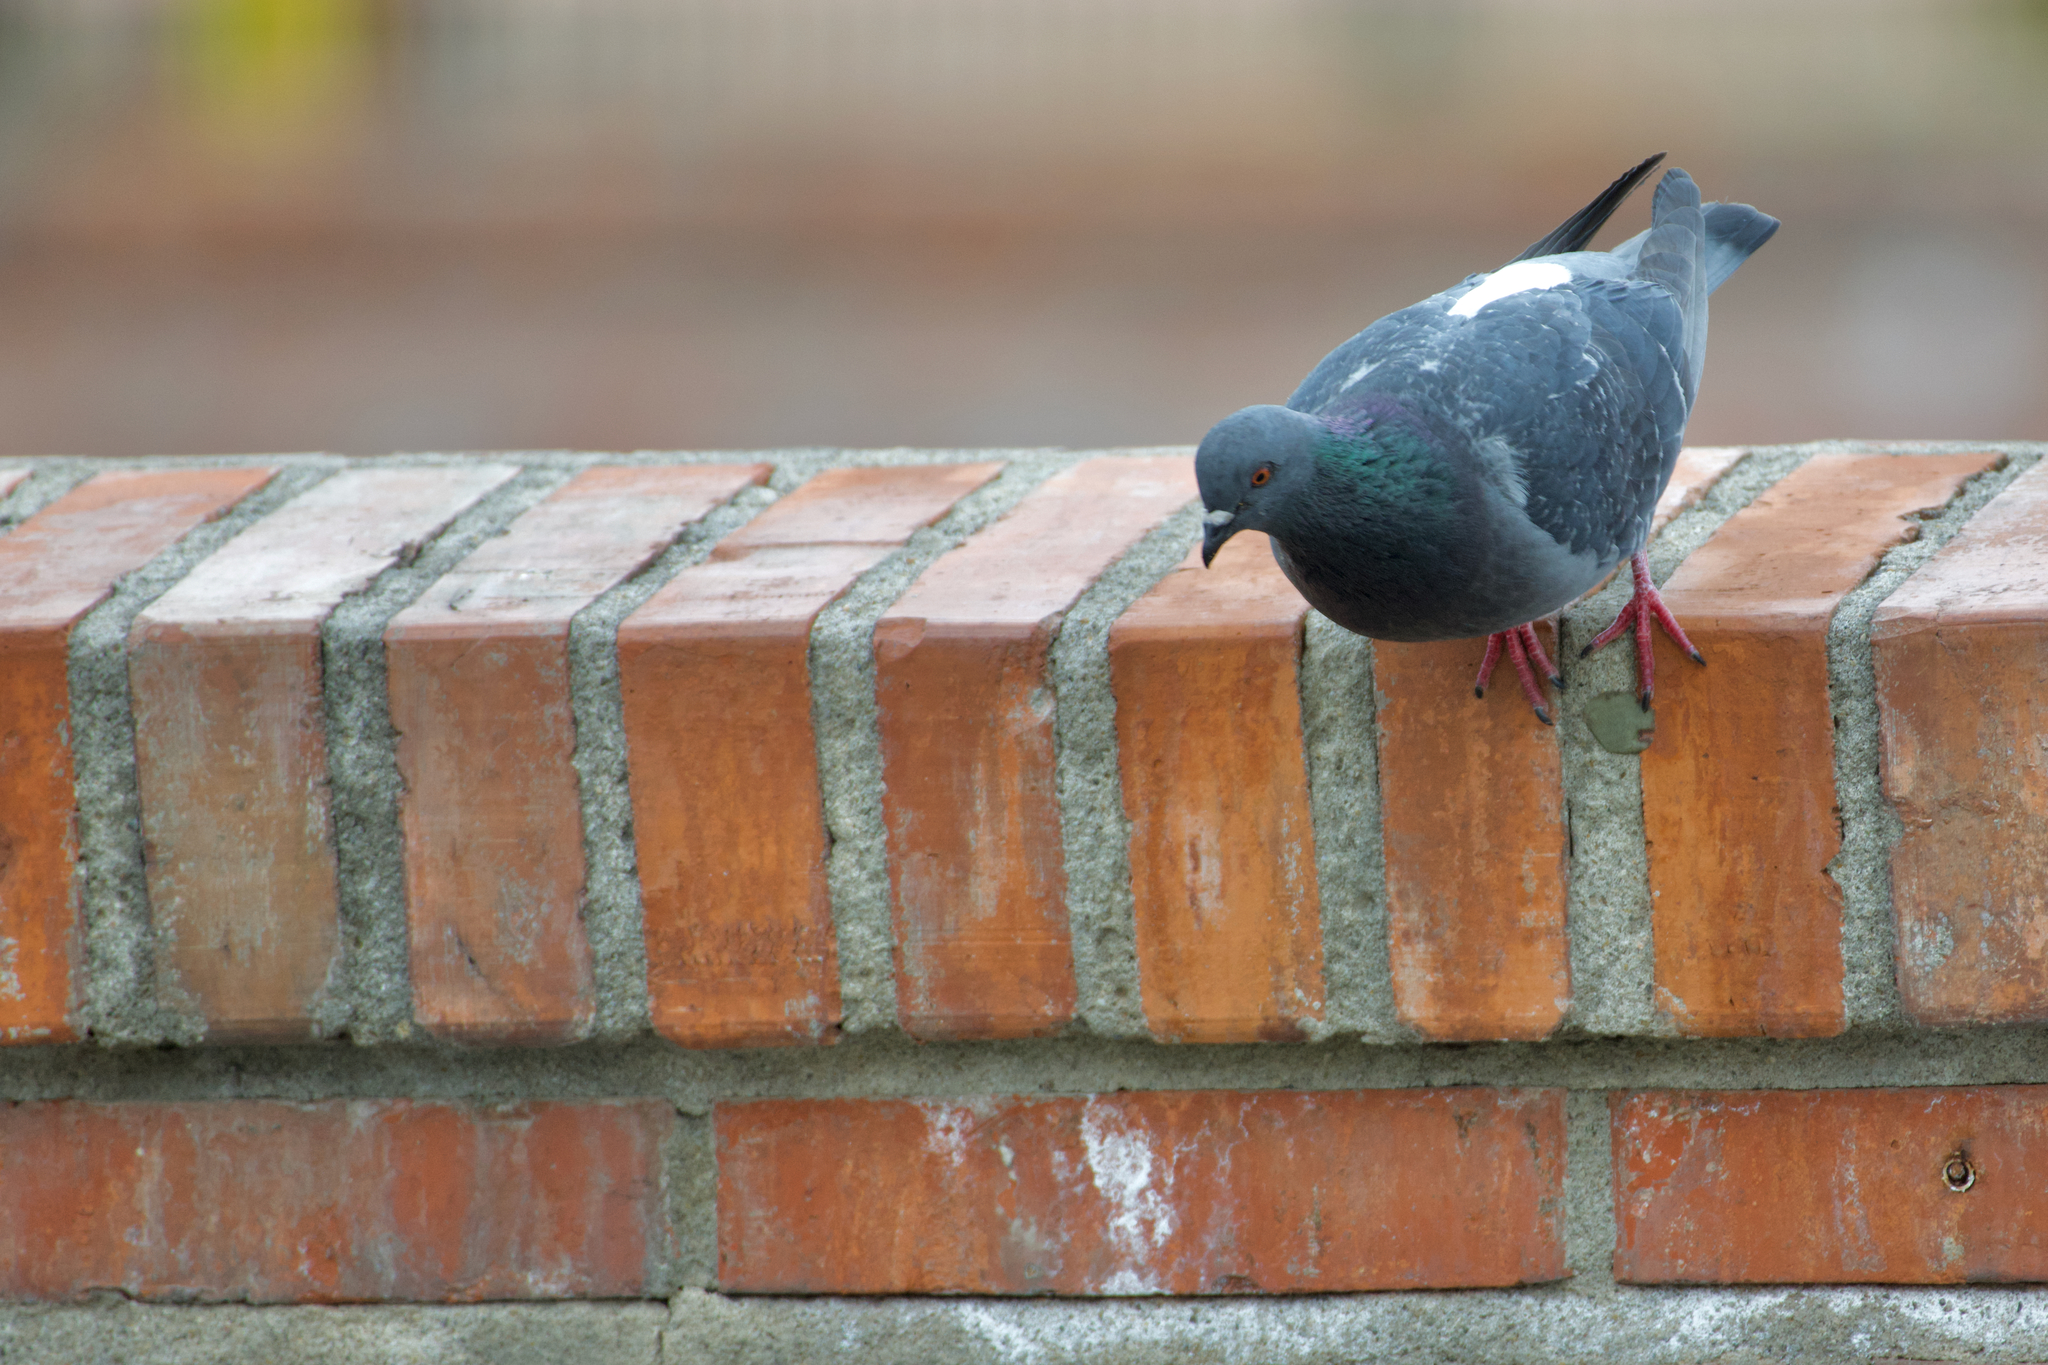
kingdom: Animalia
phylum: Chordata
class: Aves
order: Columbiformes
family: Columbidae
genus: Columba
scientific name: Columba livia
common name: Rock pigeon
